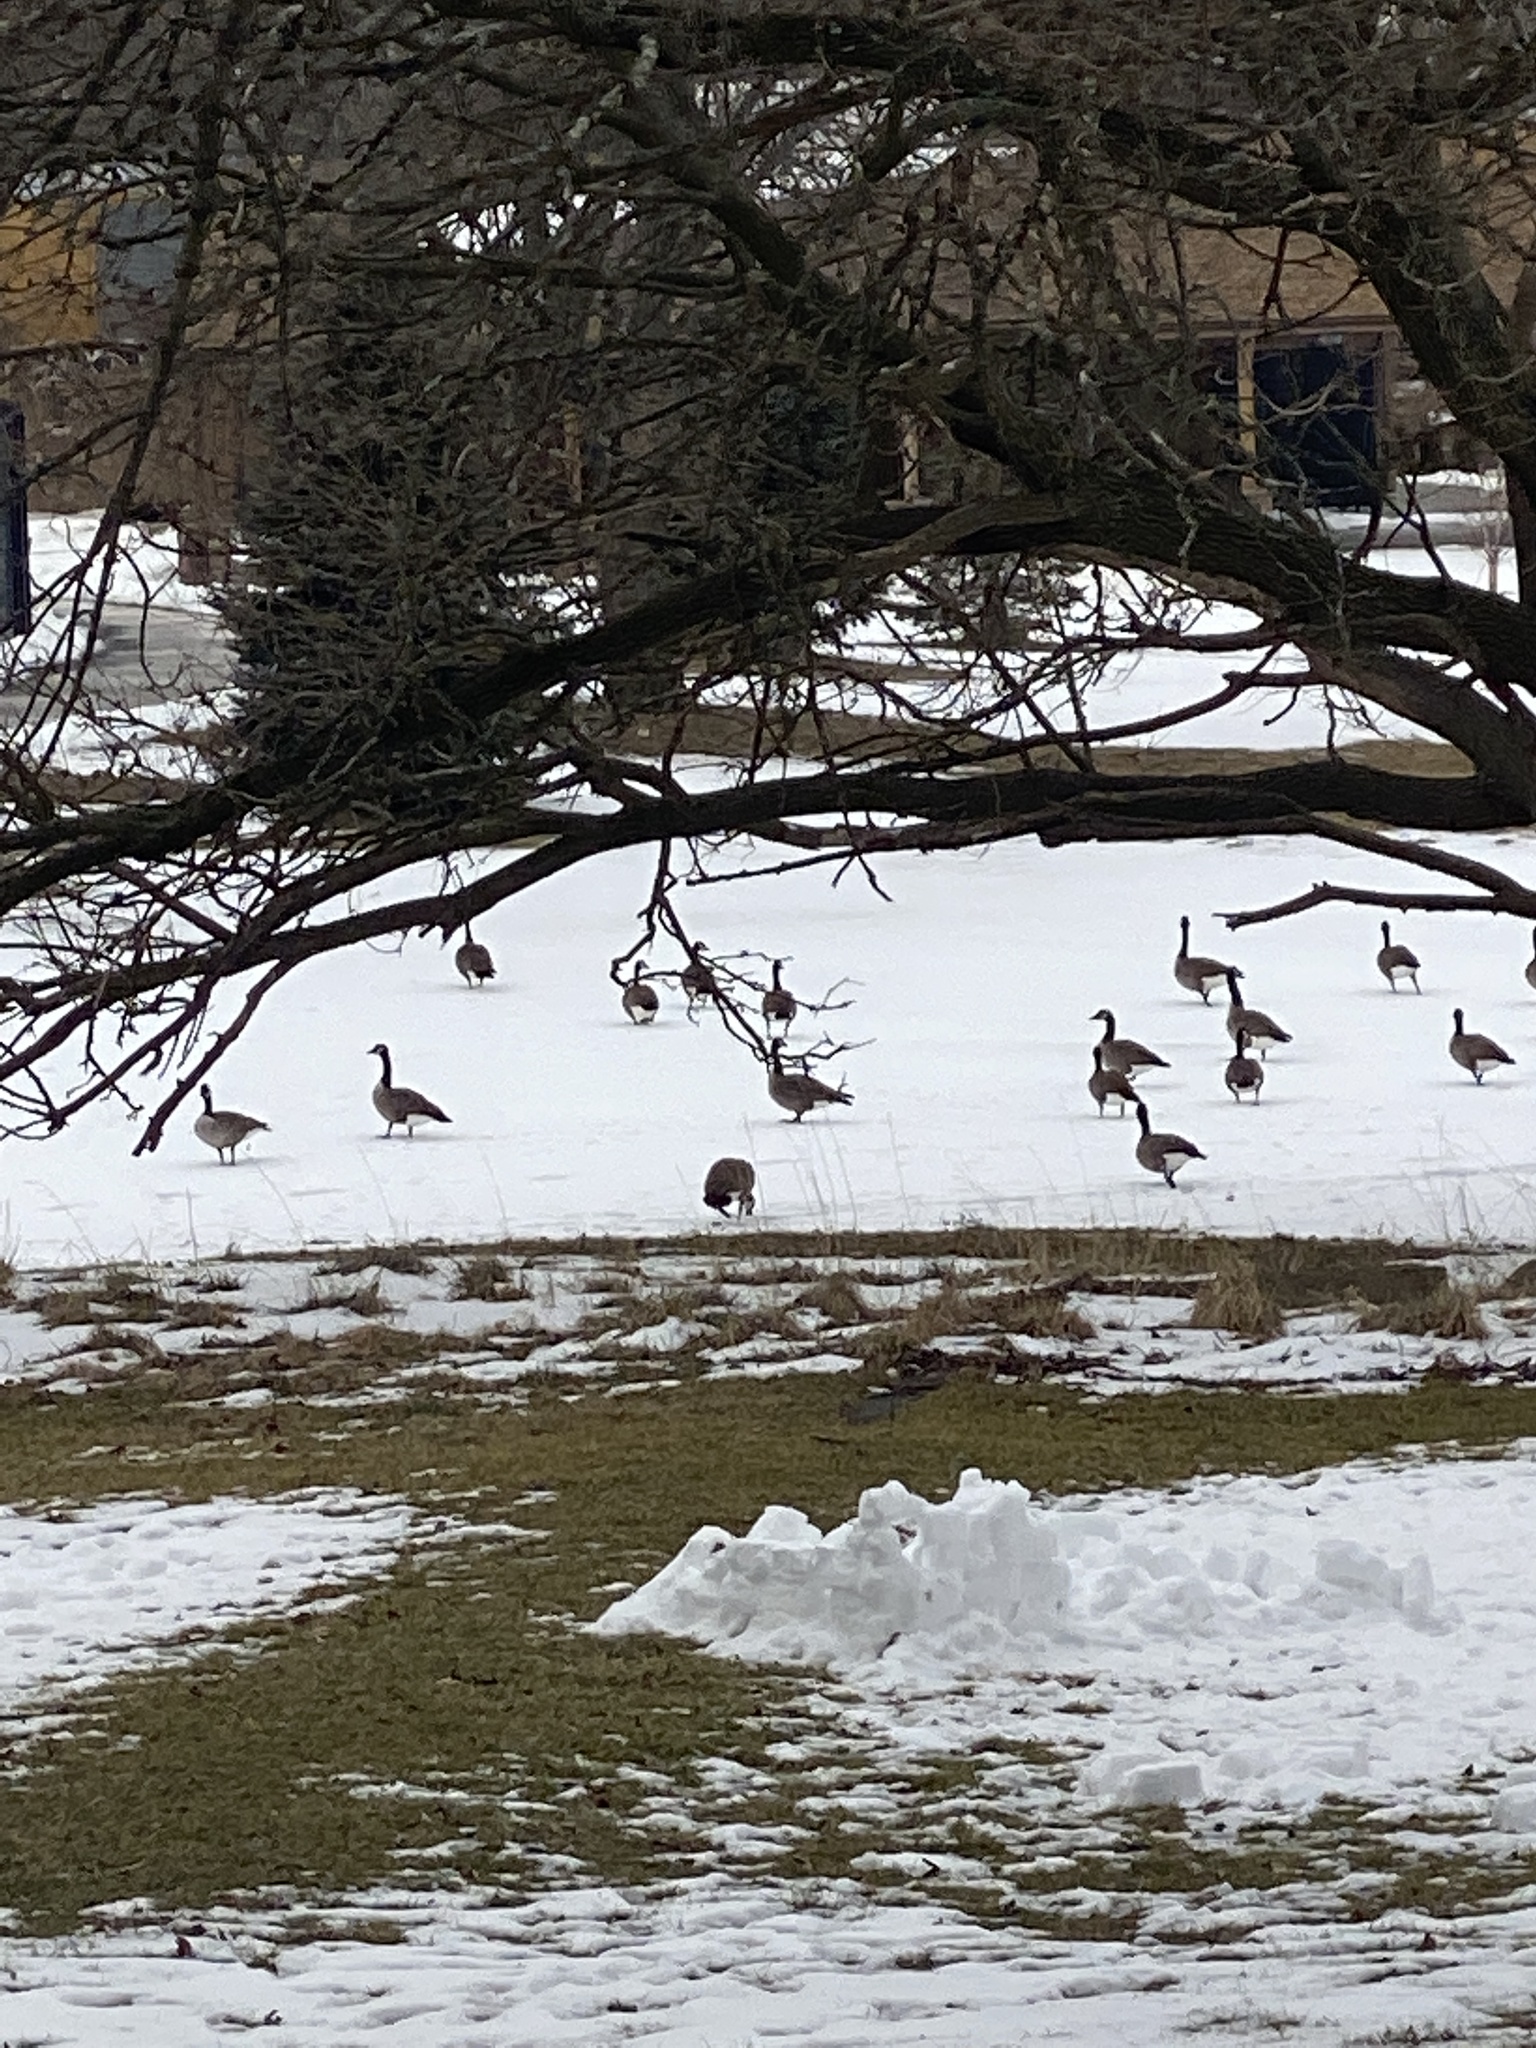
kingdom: Animalia
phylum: Chordata
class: Aves
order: Anseriformes
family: Anatidae
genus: Branta
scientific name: Branta canadensis
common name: Canada goose
